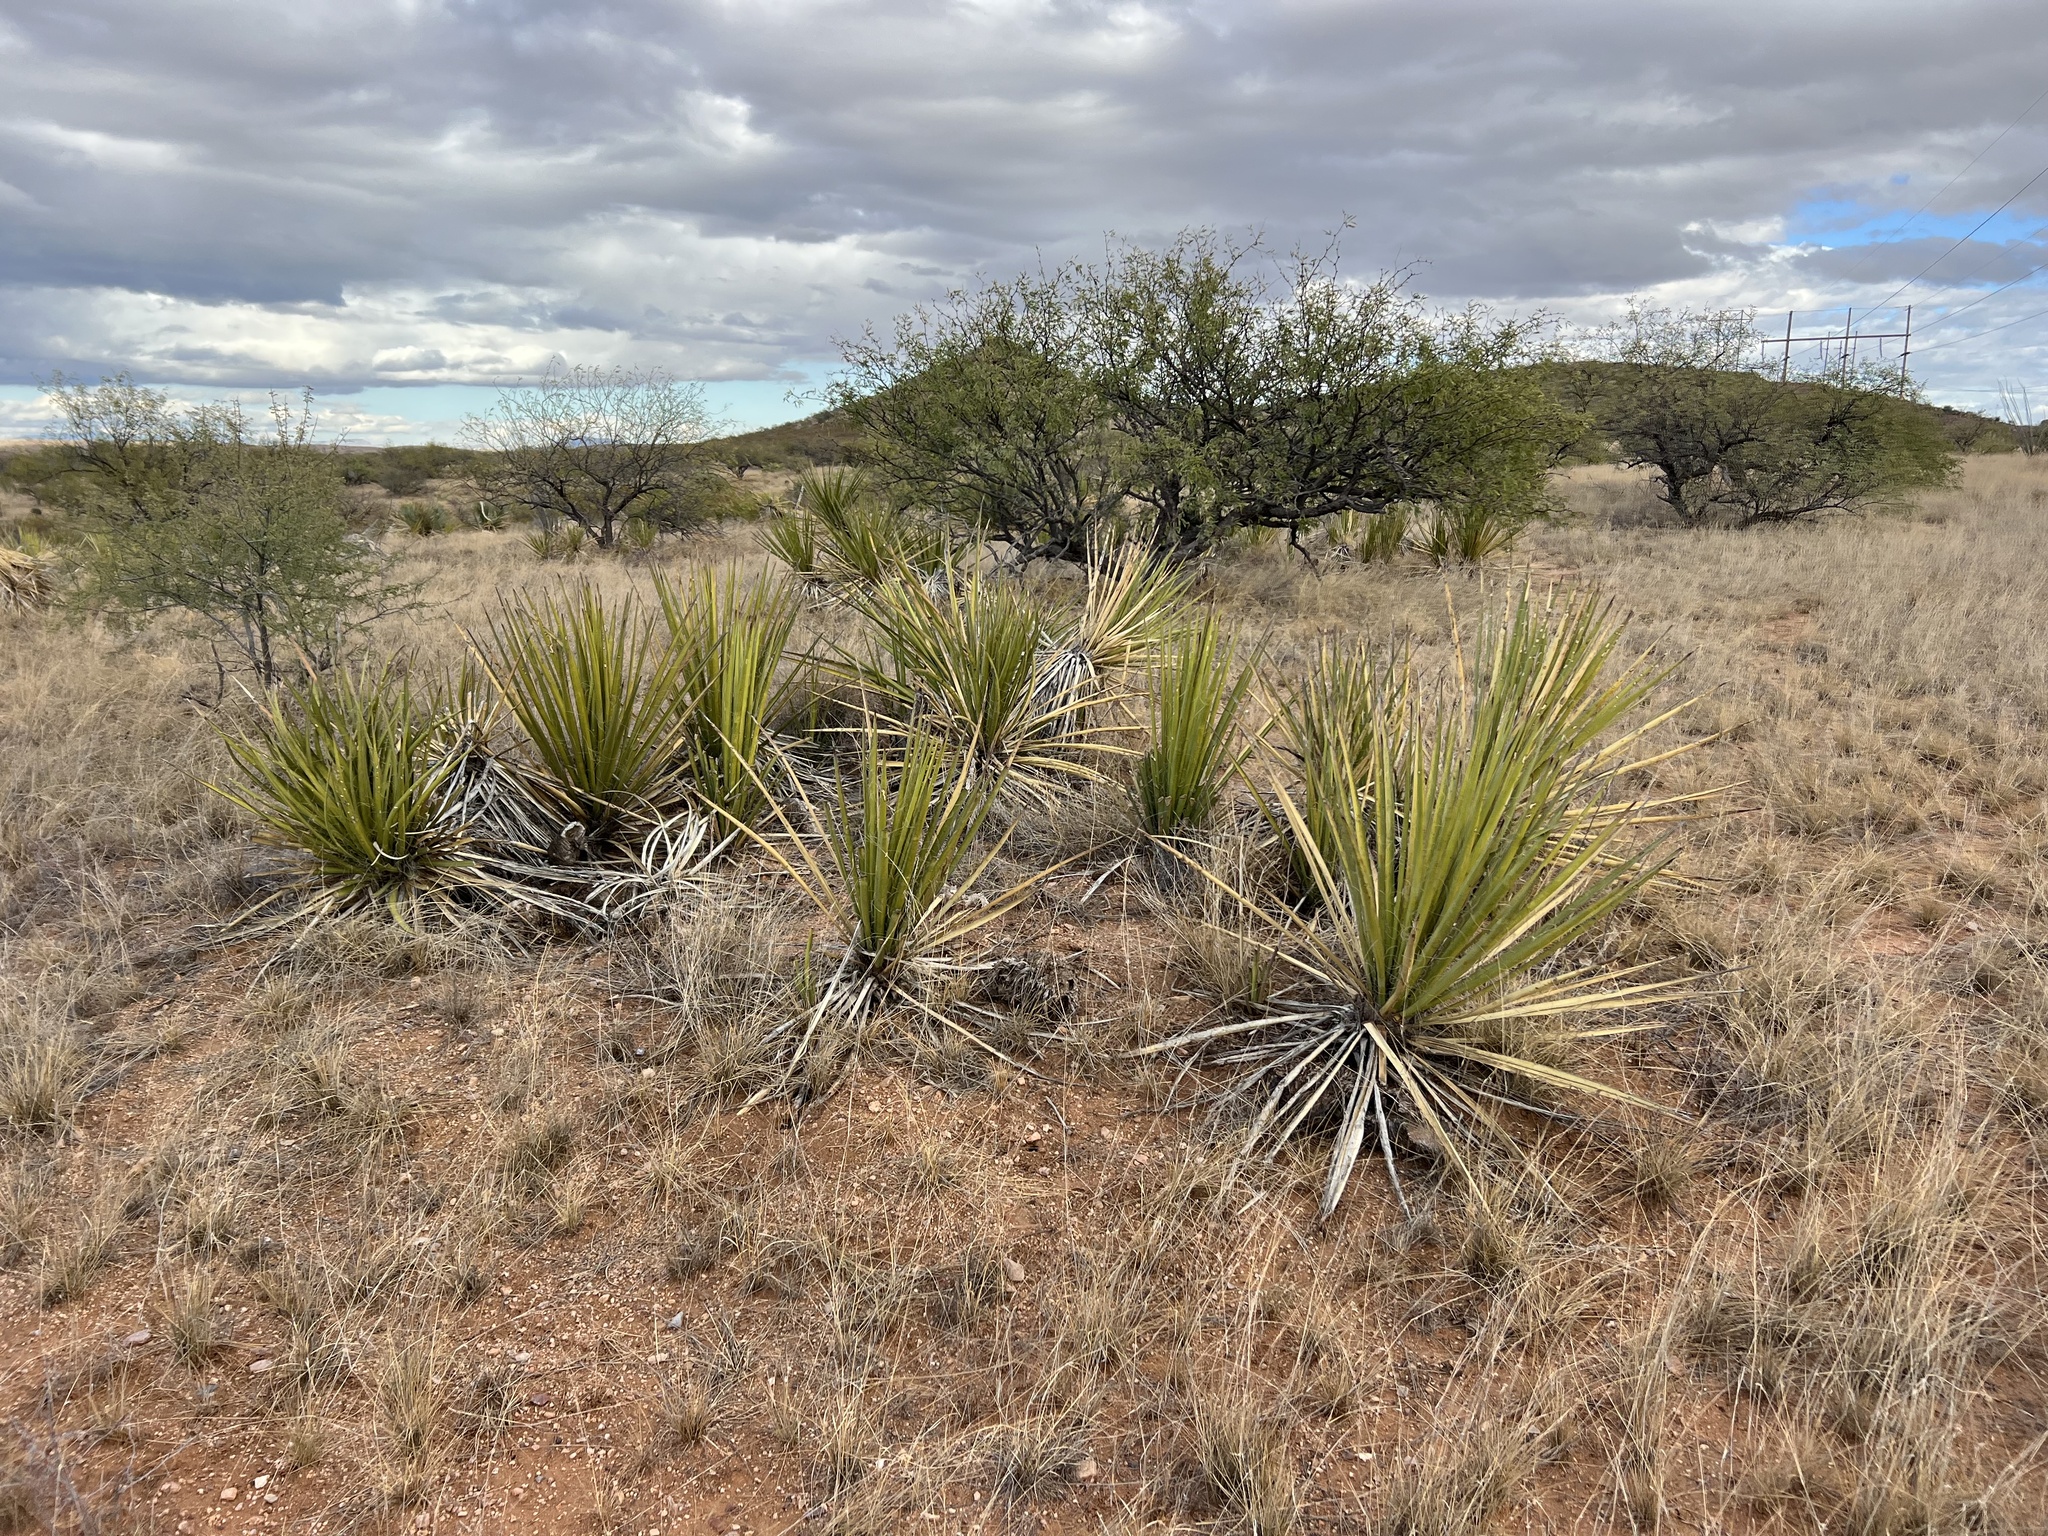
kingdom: Plantae
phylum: Tracheophyta
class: Liliopsida
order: Asparagales
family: Asparagaceae
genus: Yucca
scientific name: Yucca baccata
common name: Banana yucca
